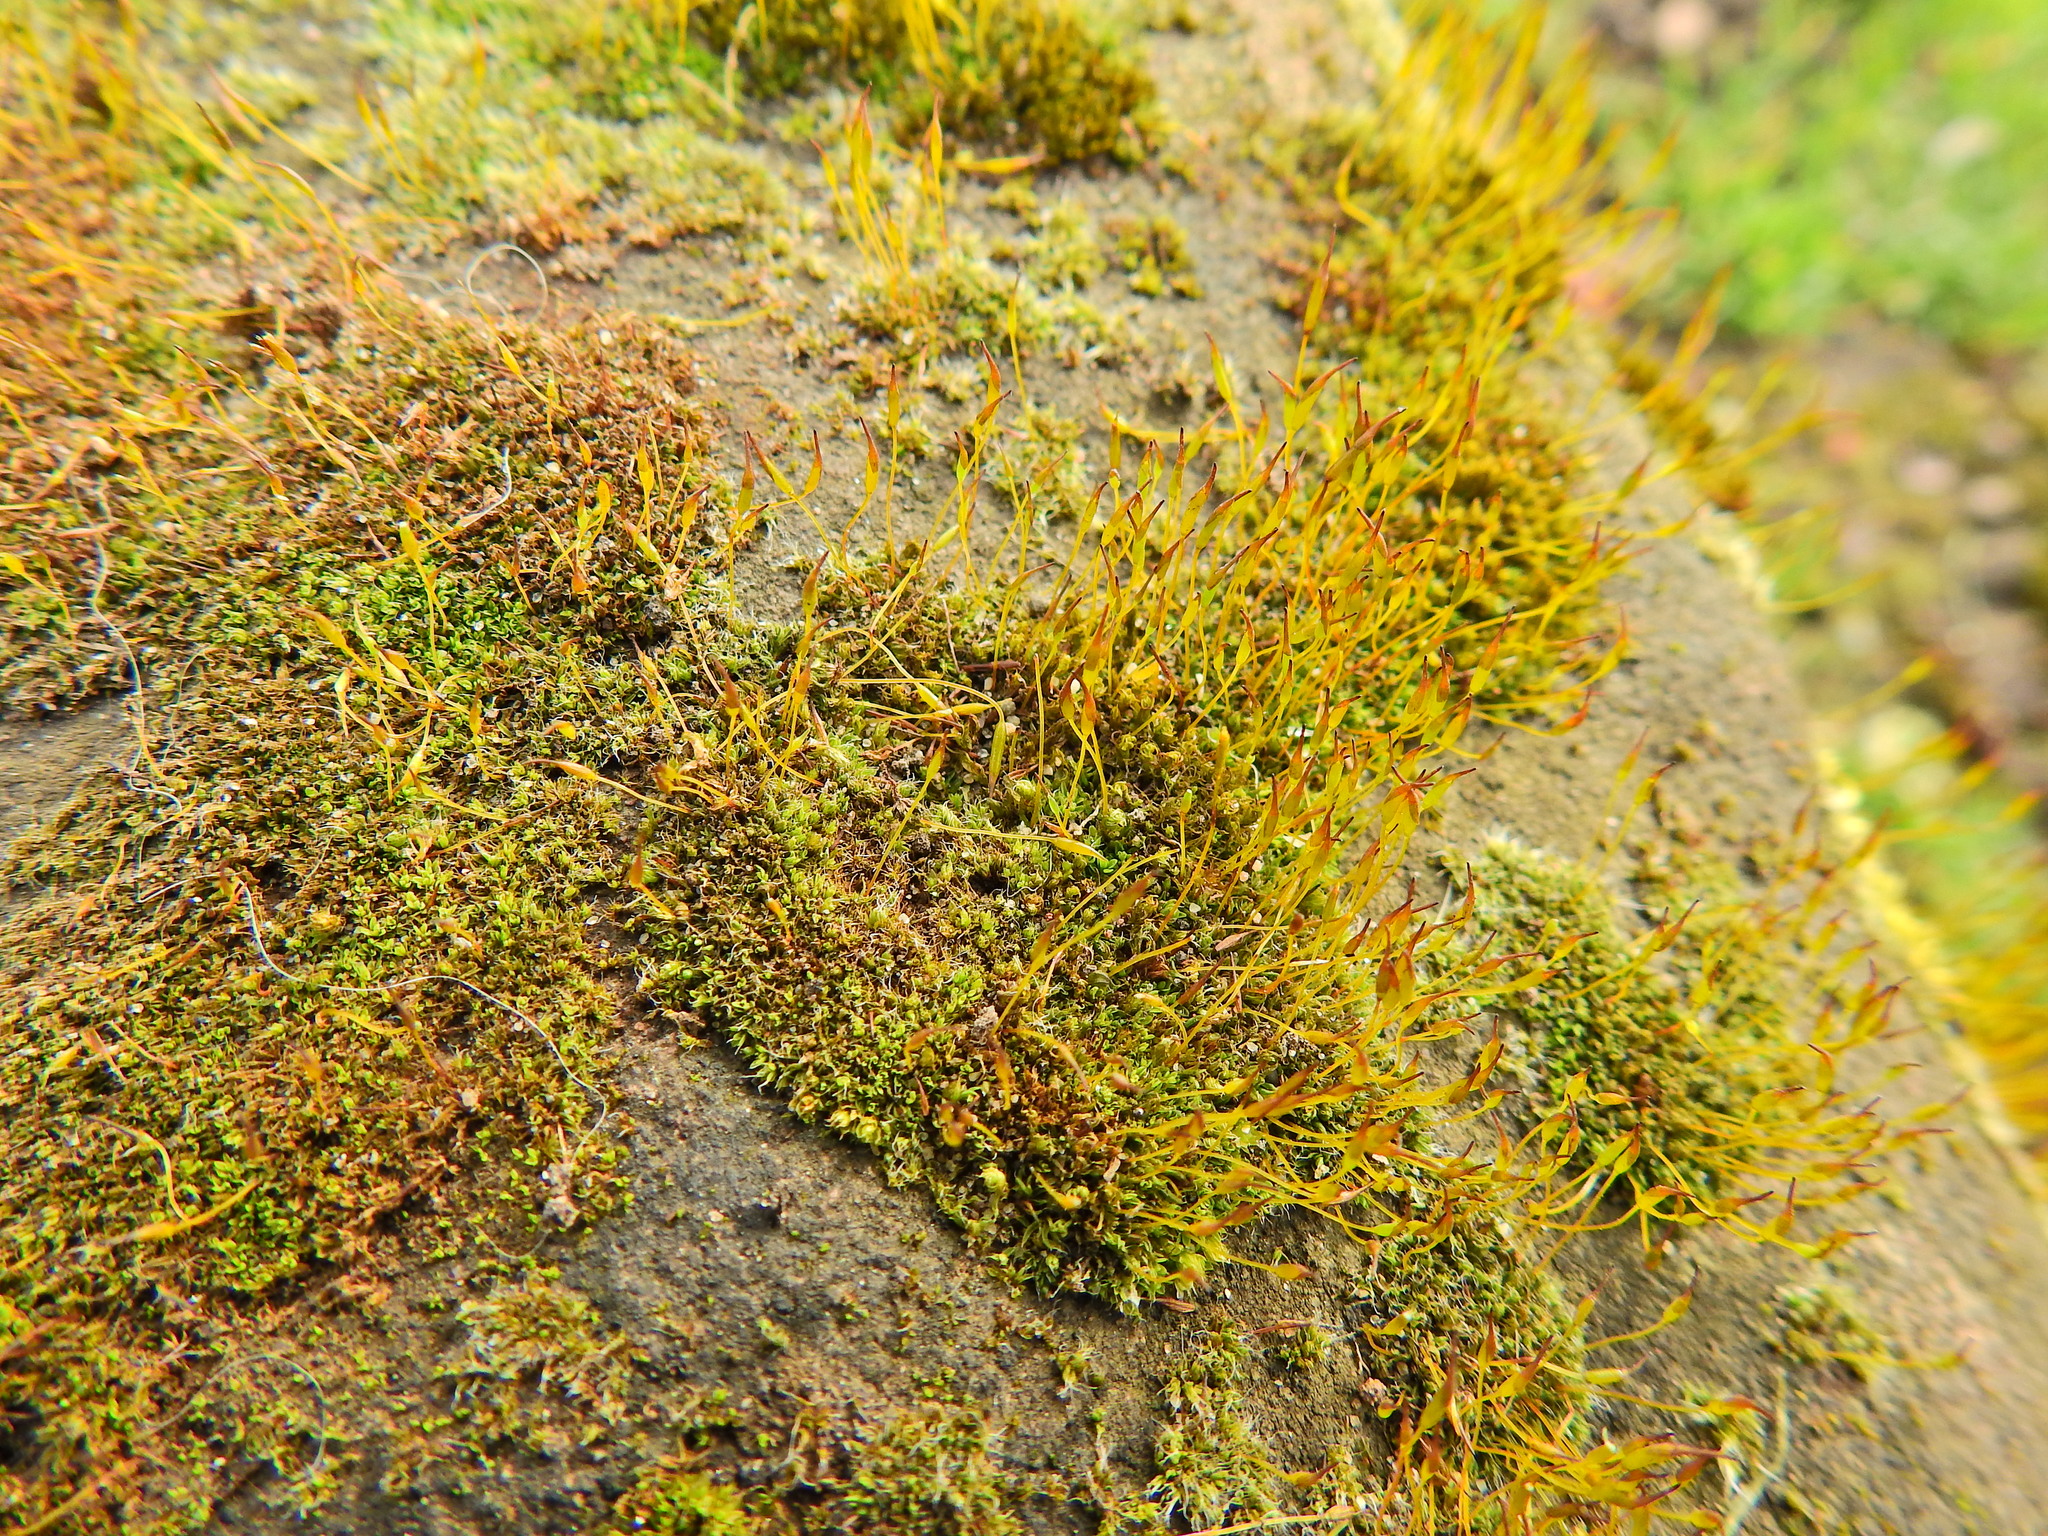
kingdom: Plantae
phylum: Bryophyta
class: Bryopsida
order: Pottiales
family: Pottiaceae
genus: Tortula
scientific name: Tortula muralis
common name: Wall screw-moss
